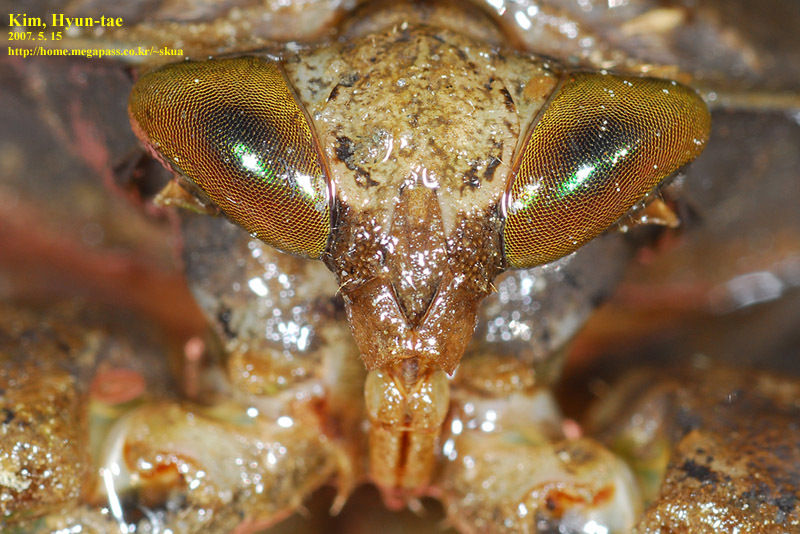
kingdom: Animalia
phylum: Arthropoda
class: Insecta
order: Hemiptera
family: Belostomatidae
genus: Kirkaldyia
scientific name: Kirkaldyia deyrollei
